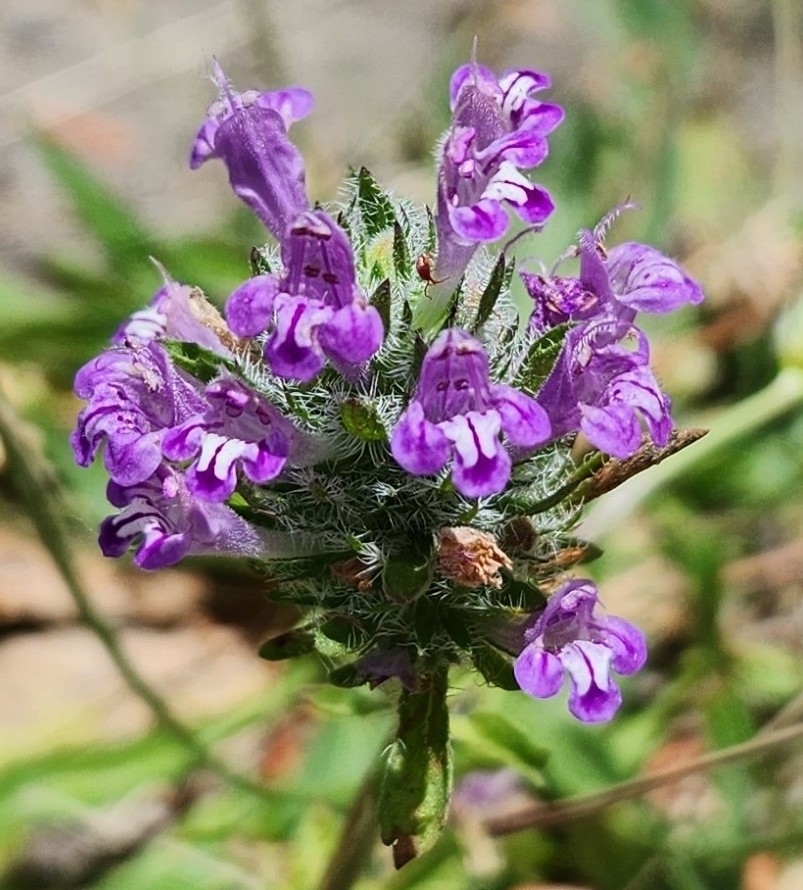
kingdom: Plantae
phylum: Tracheophyta
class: Magnoliopsida
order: Lamiales
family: Lamiaceae
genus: Pogogyne
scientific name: Pogogyne douglasii
